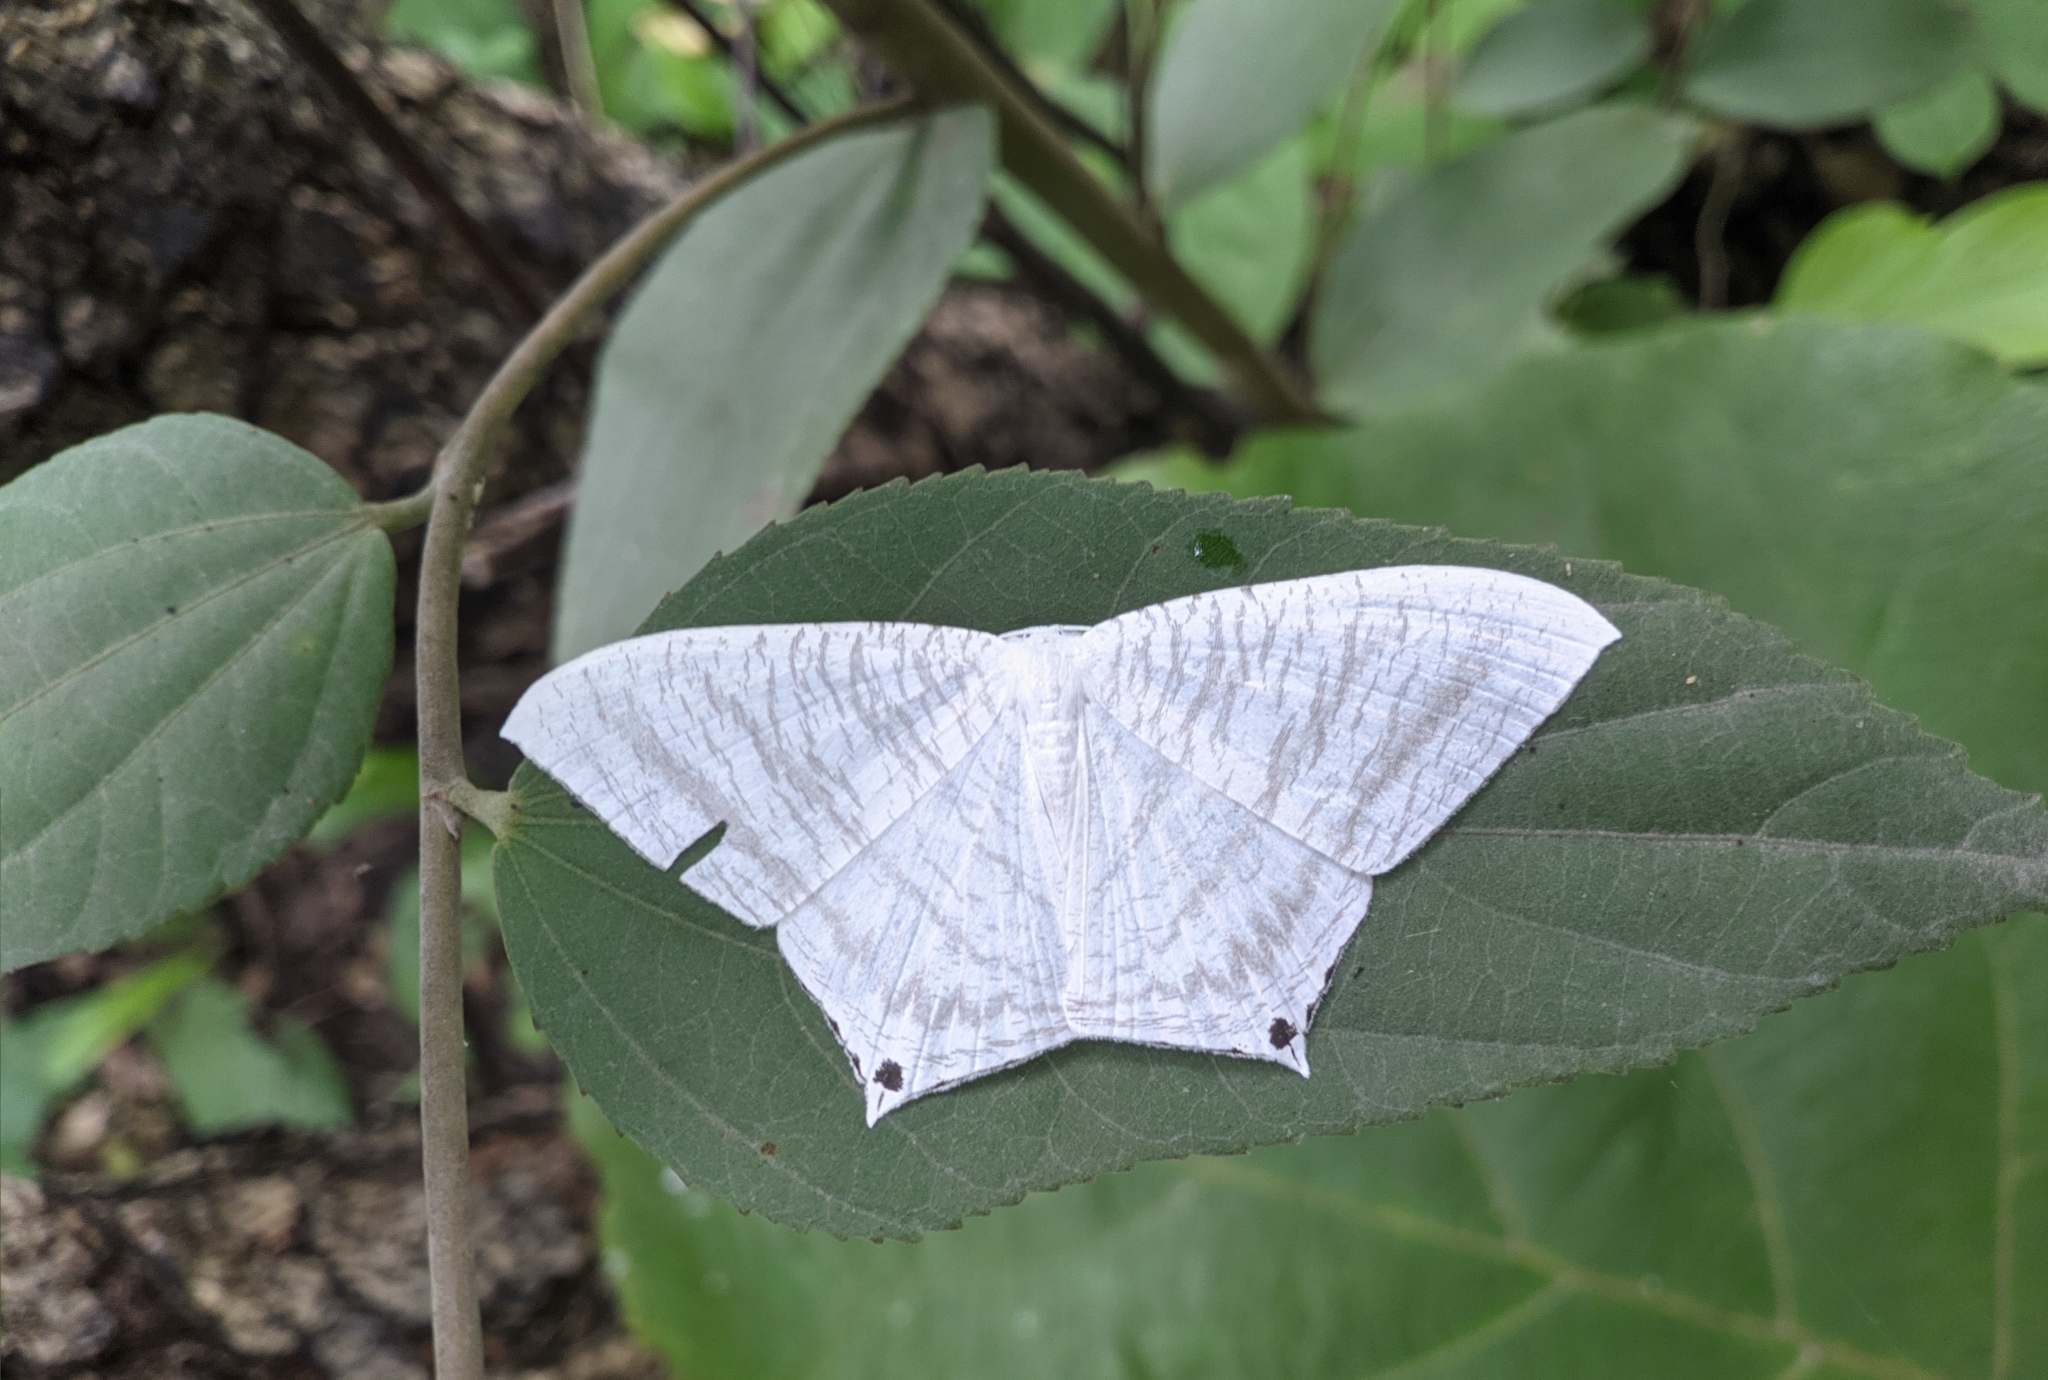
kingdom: Animalia
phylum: Arthropoda
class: Insecta
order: Lepidoptera
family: Uraniidae
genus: Micronia
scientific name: Micronia aculeata
